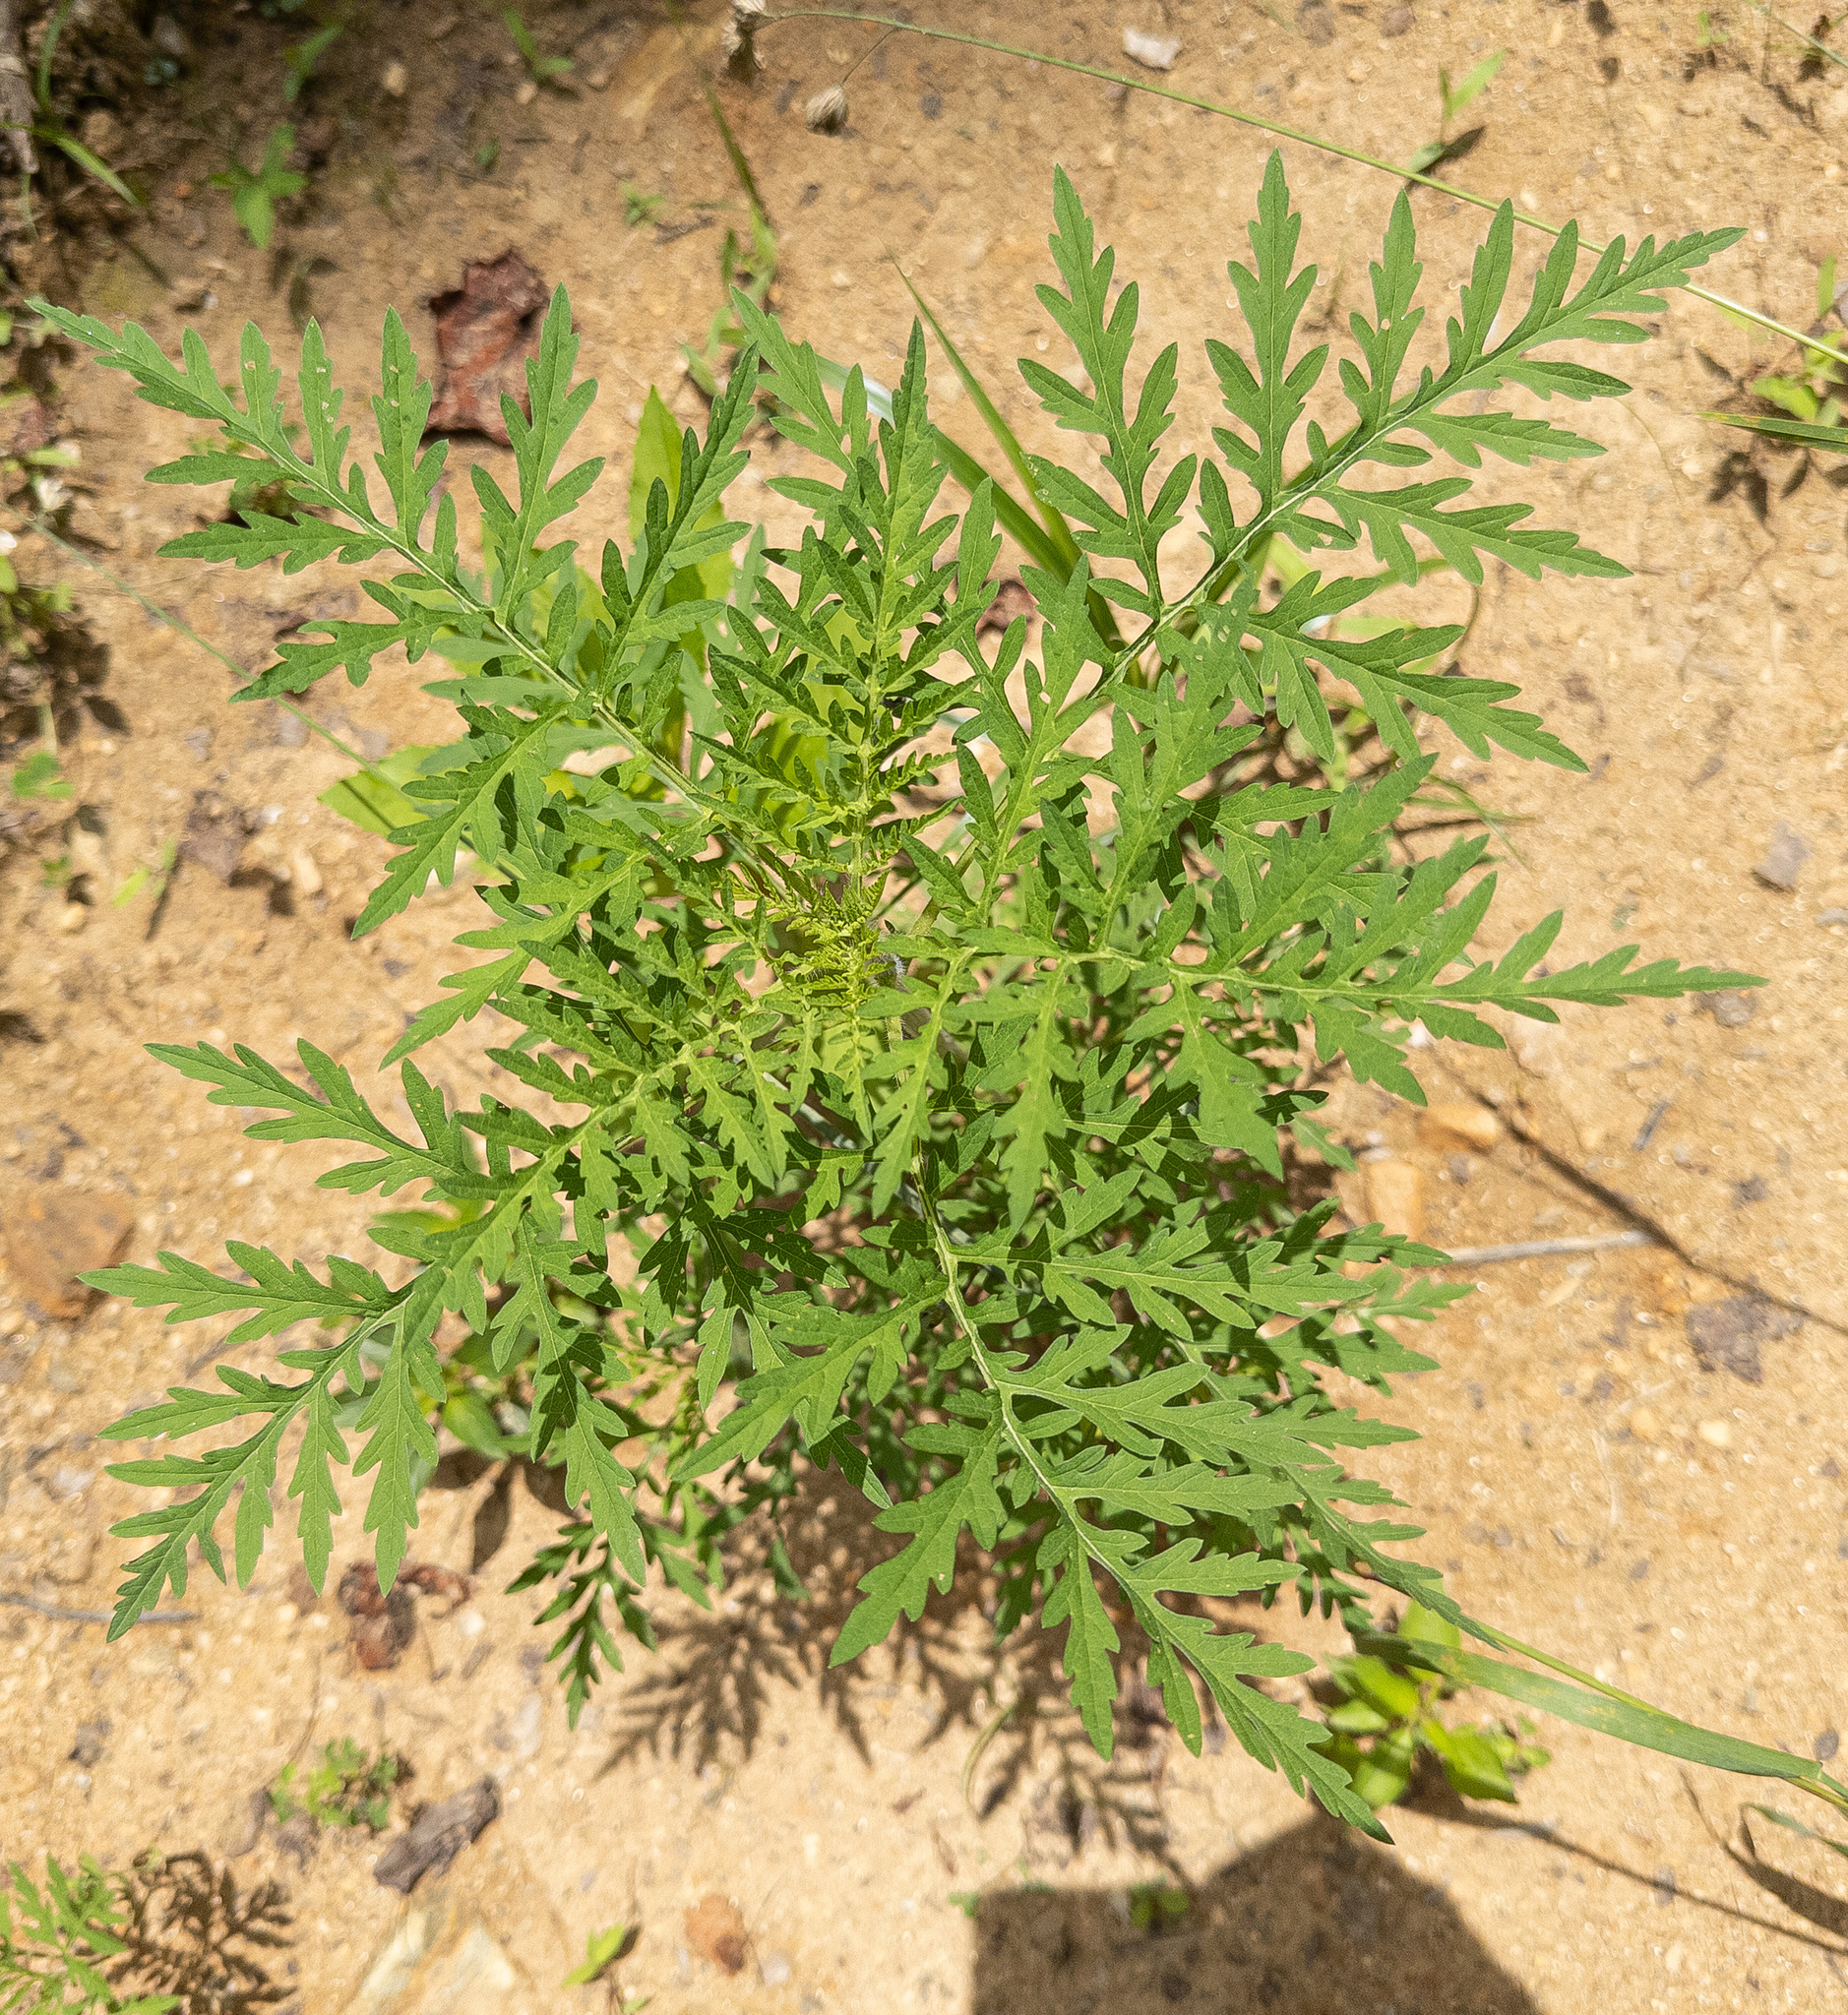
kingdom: Plantae
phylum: Tracheophyta
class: Magnoliopsida
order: Asterales
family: Asteraceae
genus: Ambrosia
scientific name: Ambrosia artemisiifolia
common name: Annual ragweed
